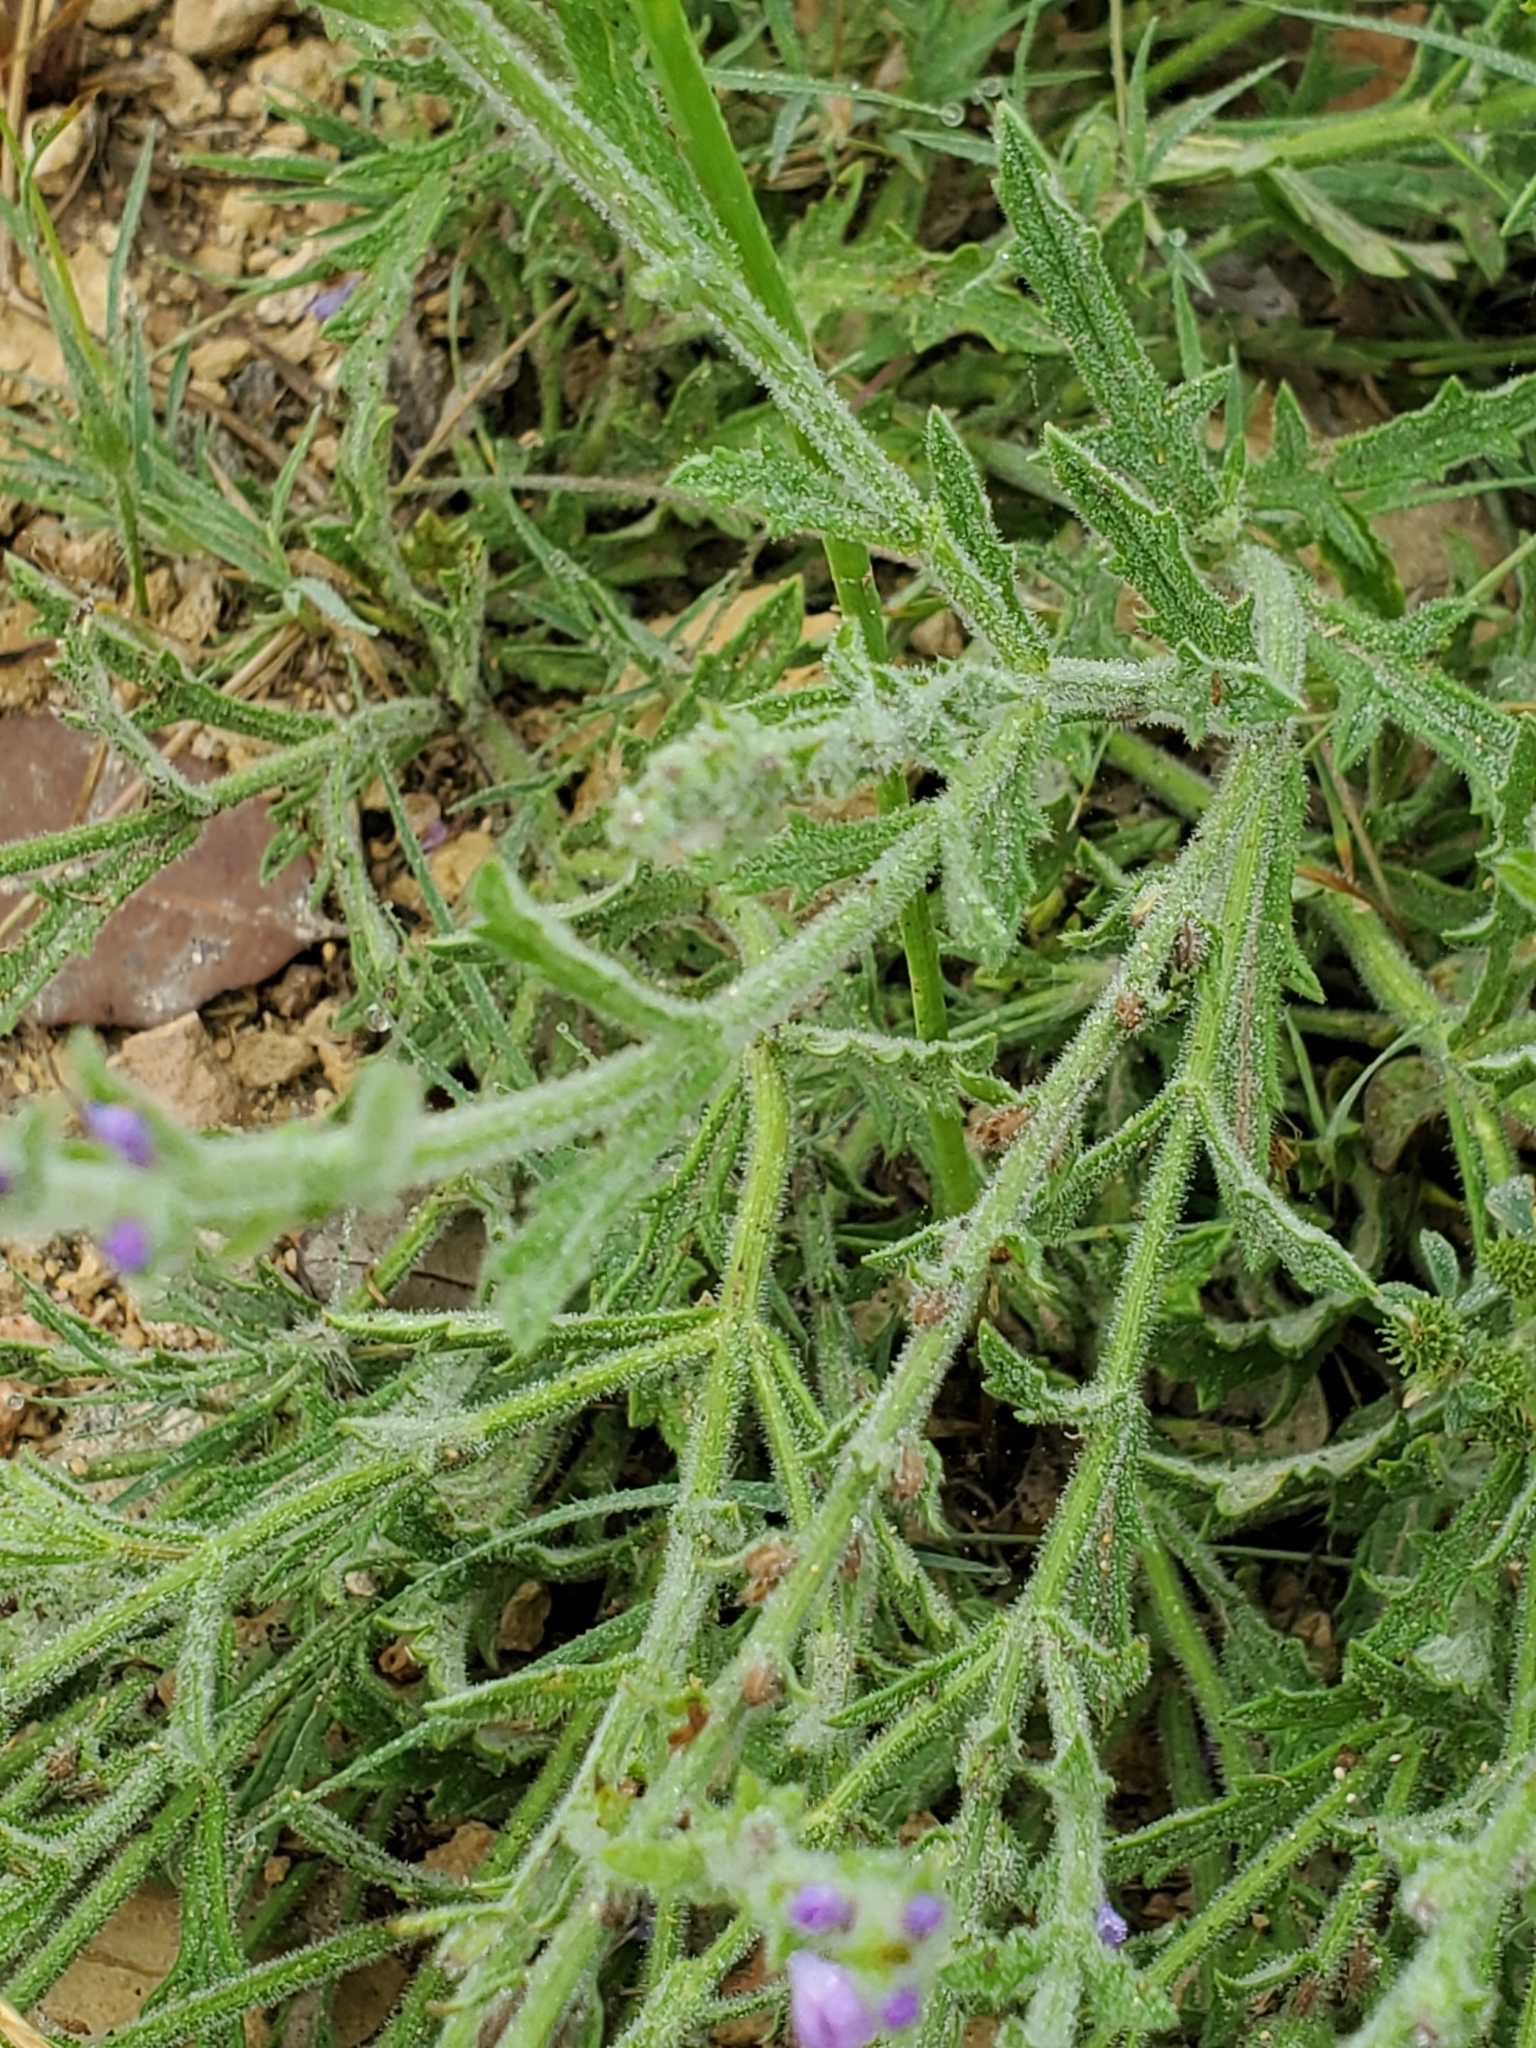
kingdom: Plantae
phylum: Tracheophyta
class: Magnoliopsida
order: Lamiales
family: Verbenaceae
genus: Verbena
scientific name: Verbena canescens
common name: Gray vervain
